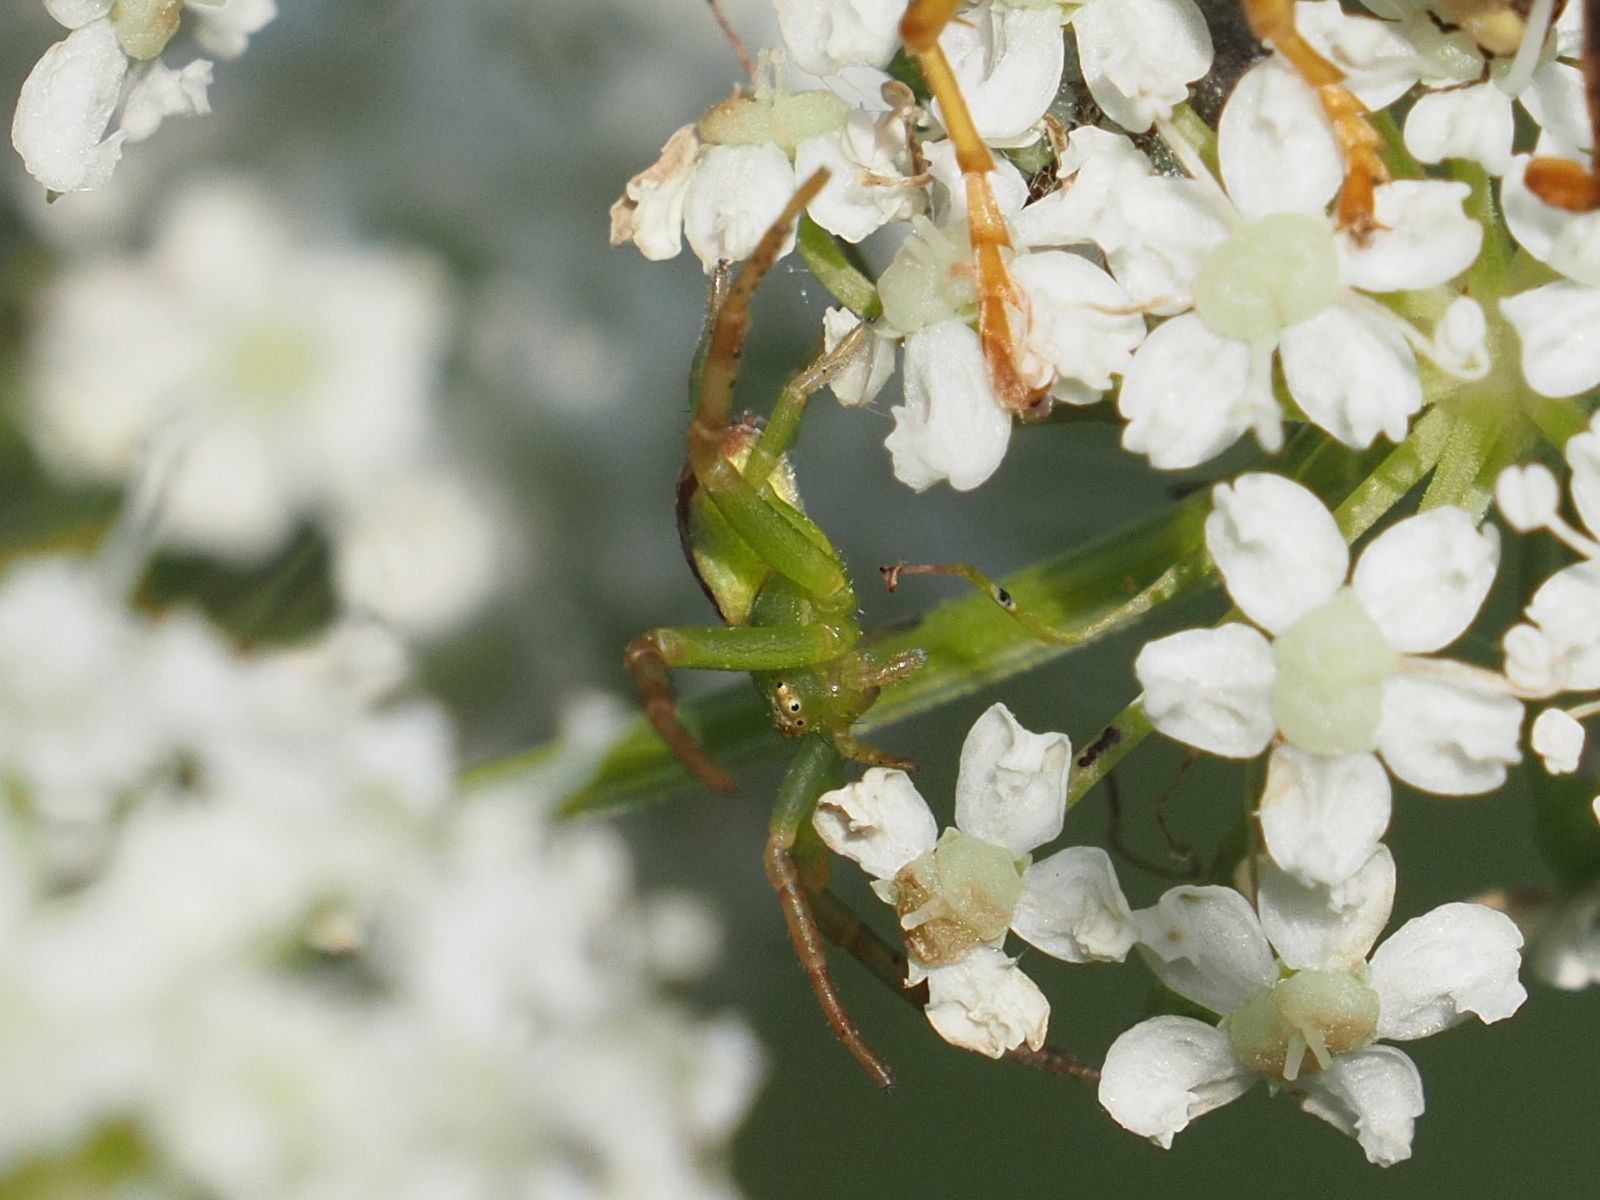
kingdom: Animalia
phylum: Arthropoda
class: Arachnida
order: Araneae
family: Thomisidae
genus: Ebrechtella
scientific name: Ebrechtella tricuspidata
